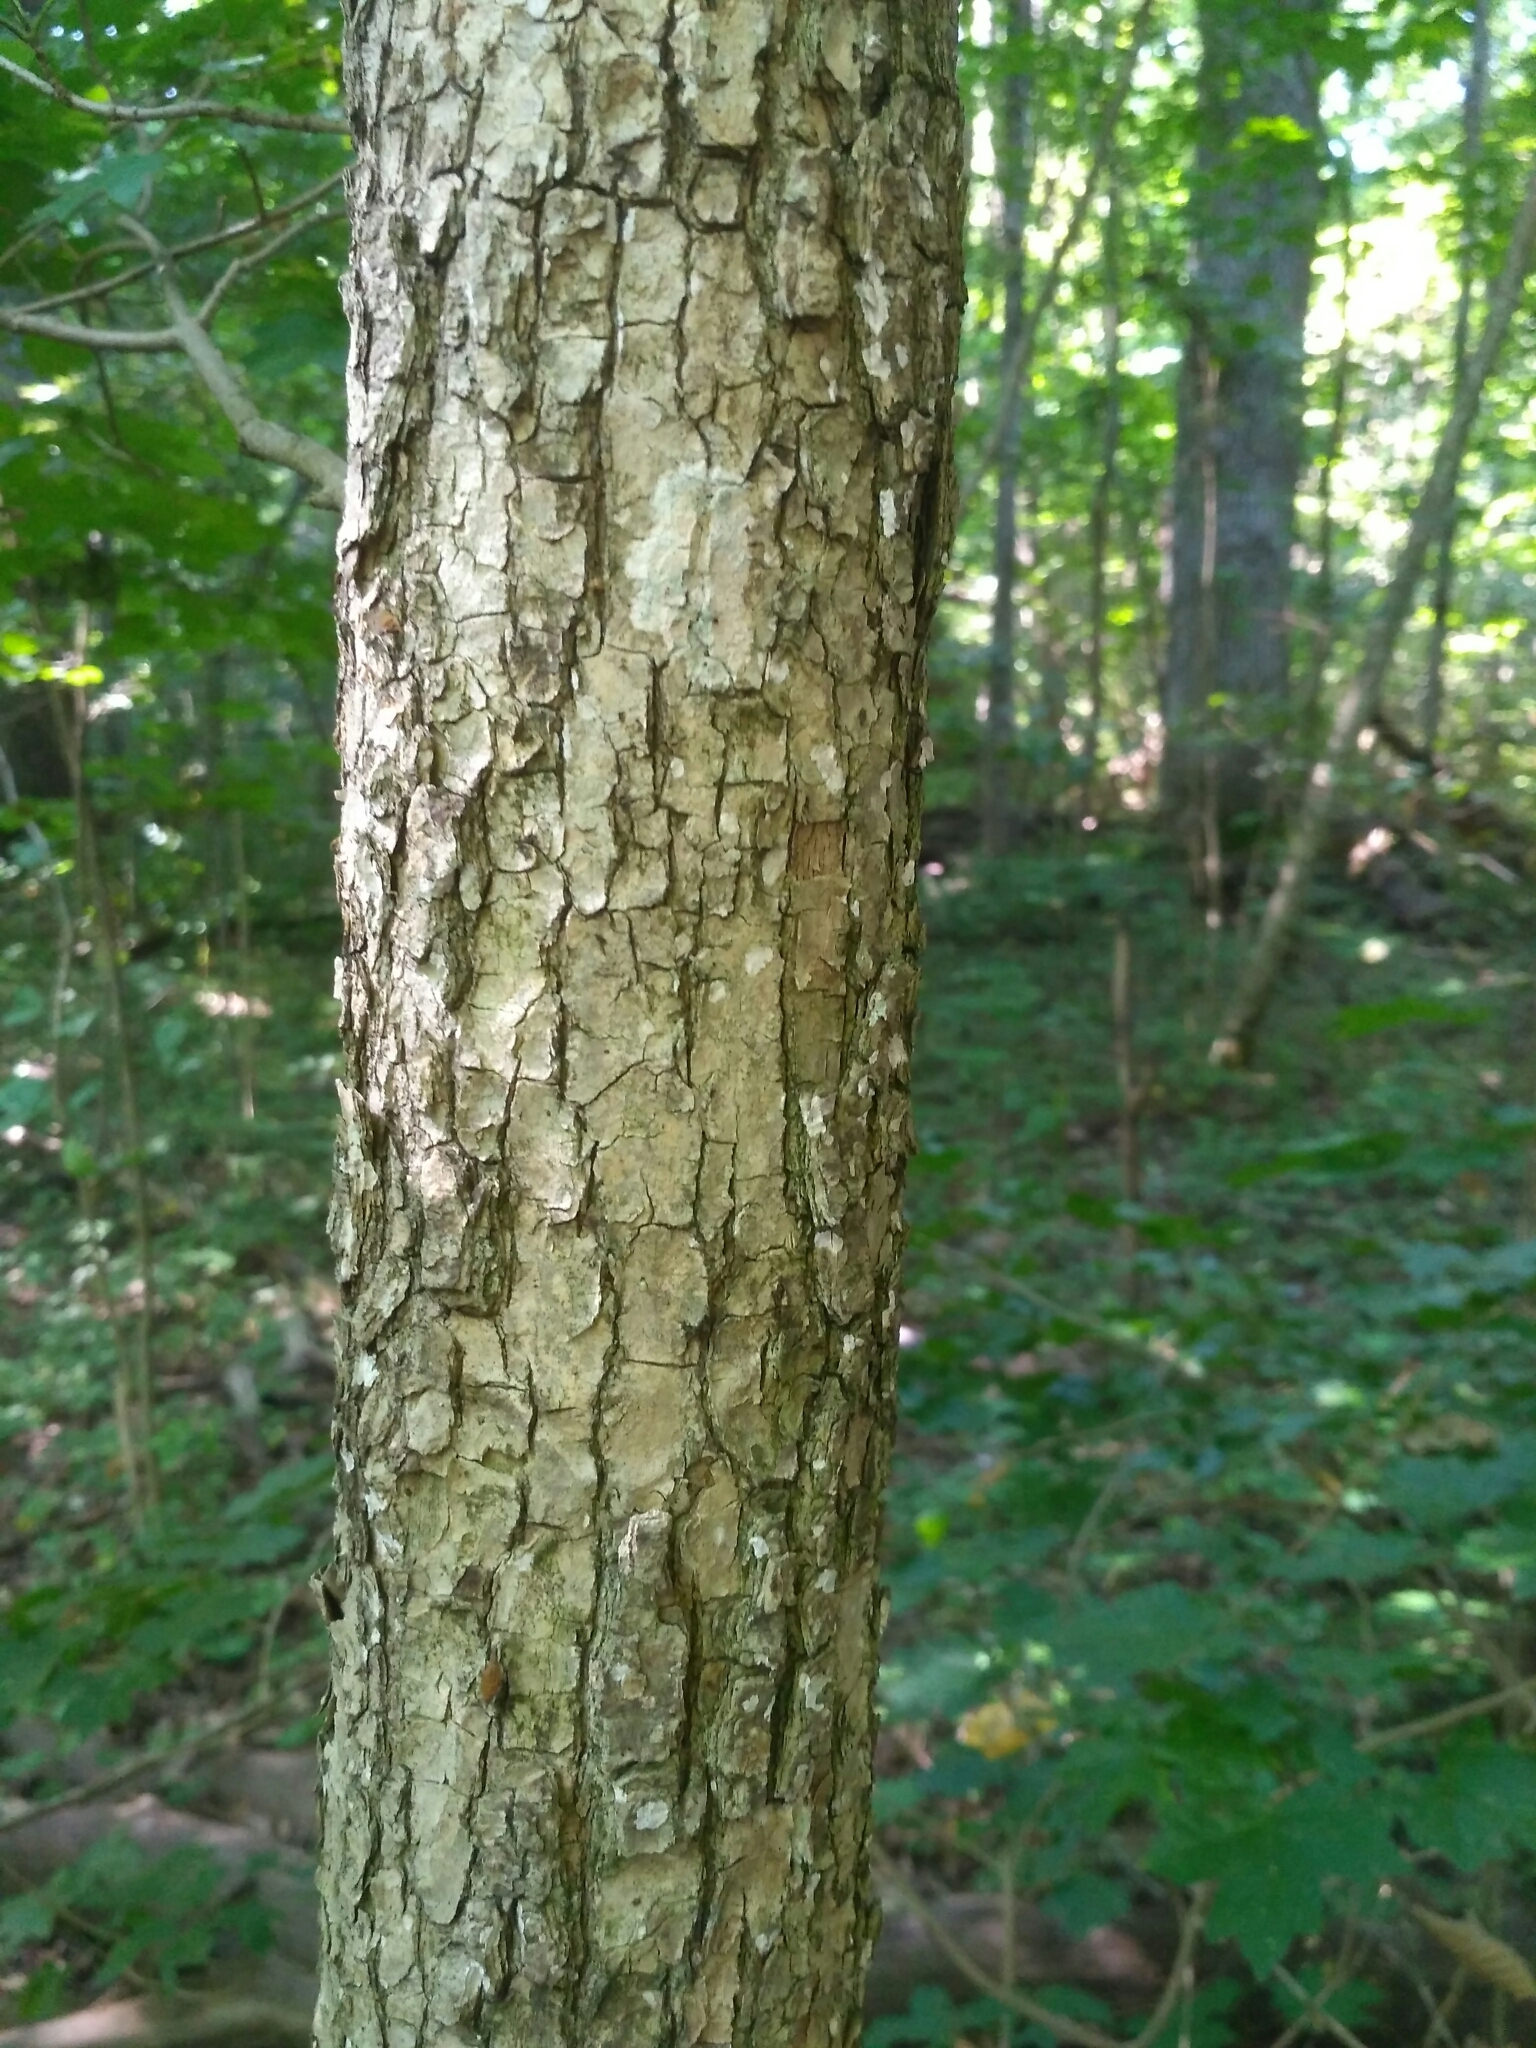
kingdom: Plantae
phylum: Tracheophyta
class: Magnoliopsida
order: Sapindales
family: Sapindaceae
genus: Acer
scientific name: Acer campestre
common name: Field maple
